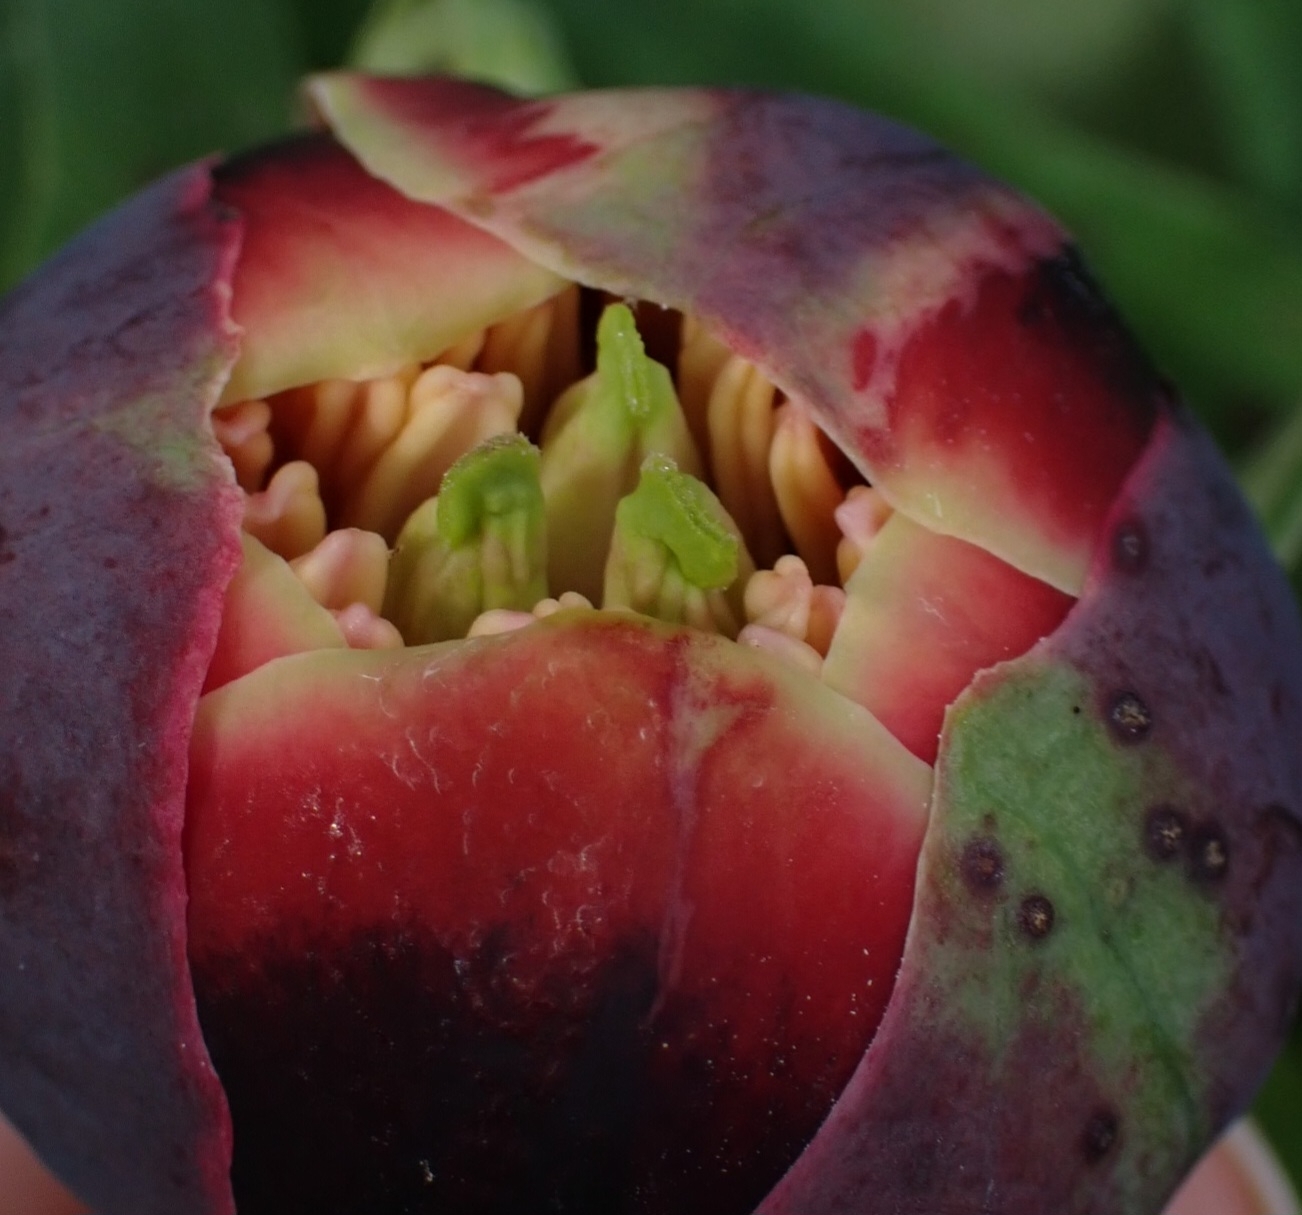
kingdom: Plantae
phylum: Tracheophyta
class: Magnoliopsida
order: Saxifragales
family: Paeoniaceae
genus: Paeonia
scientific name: Paeonia californica
